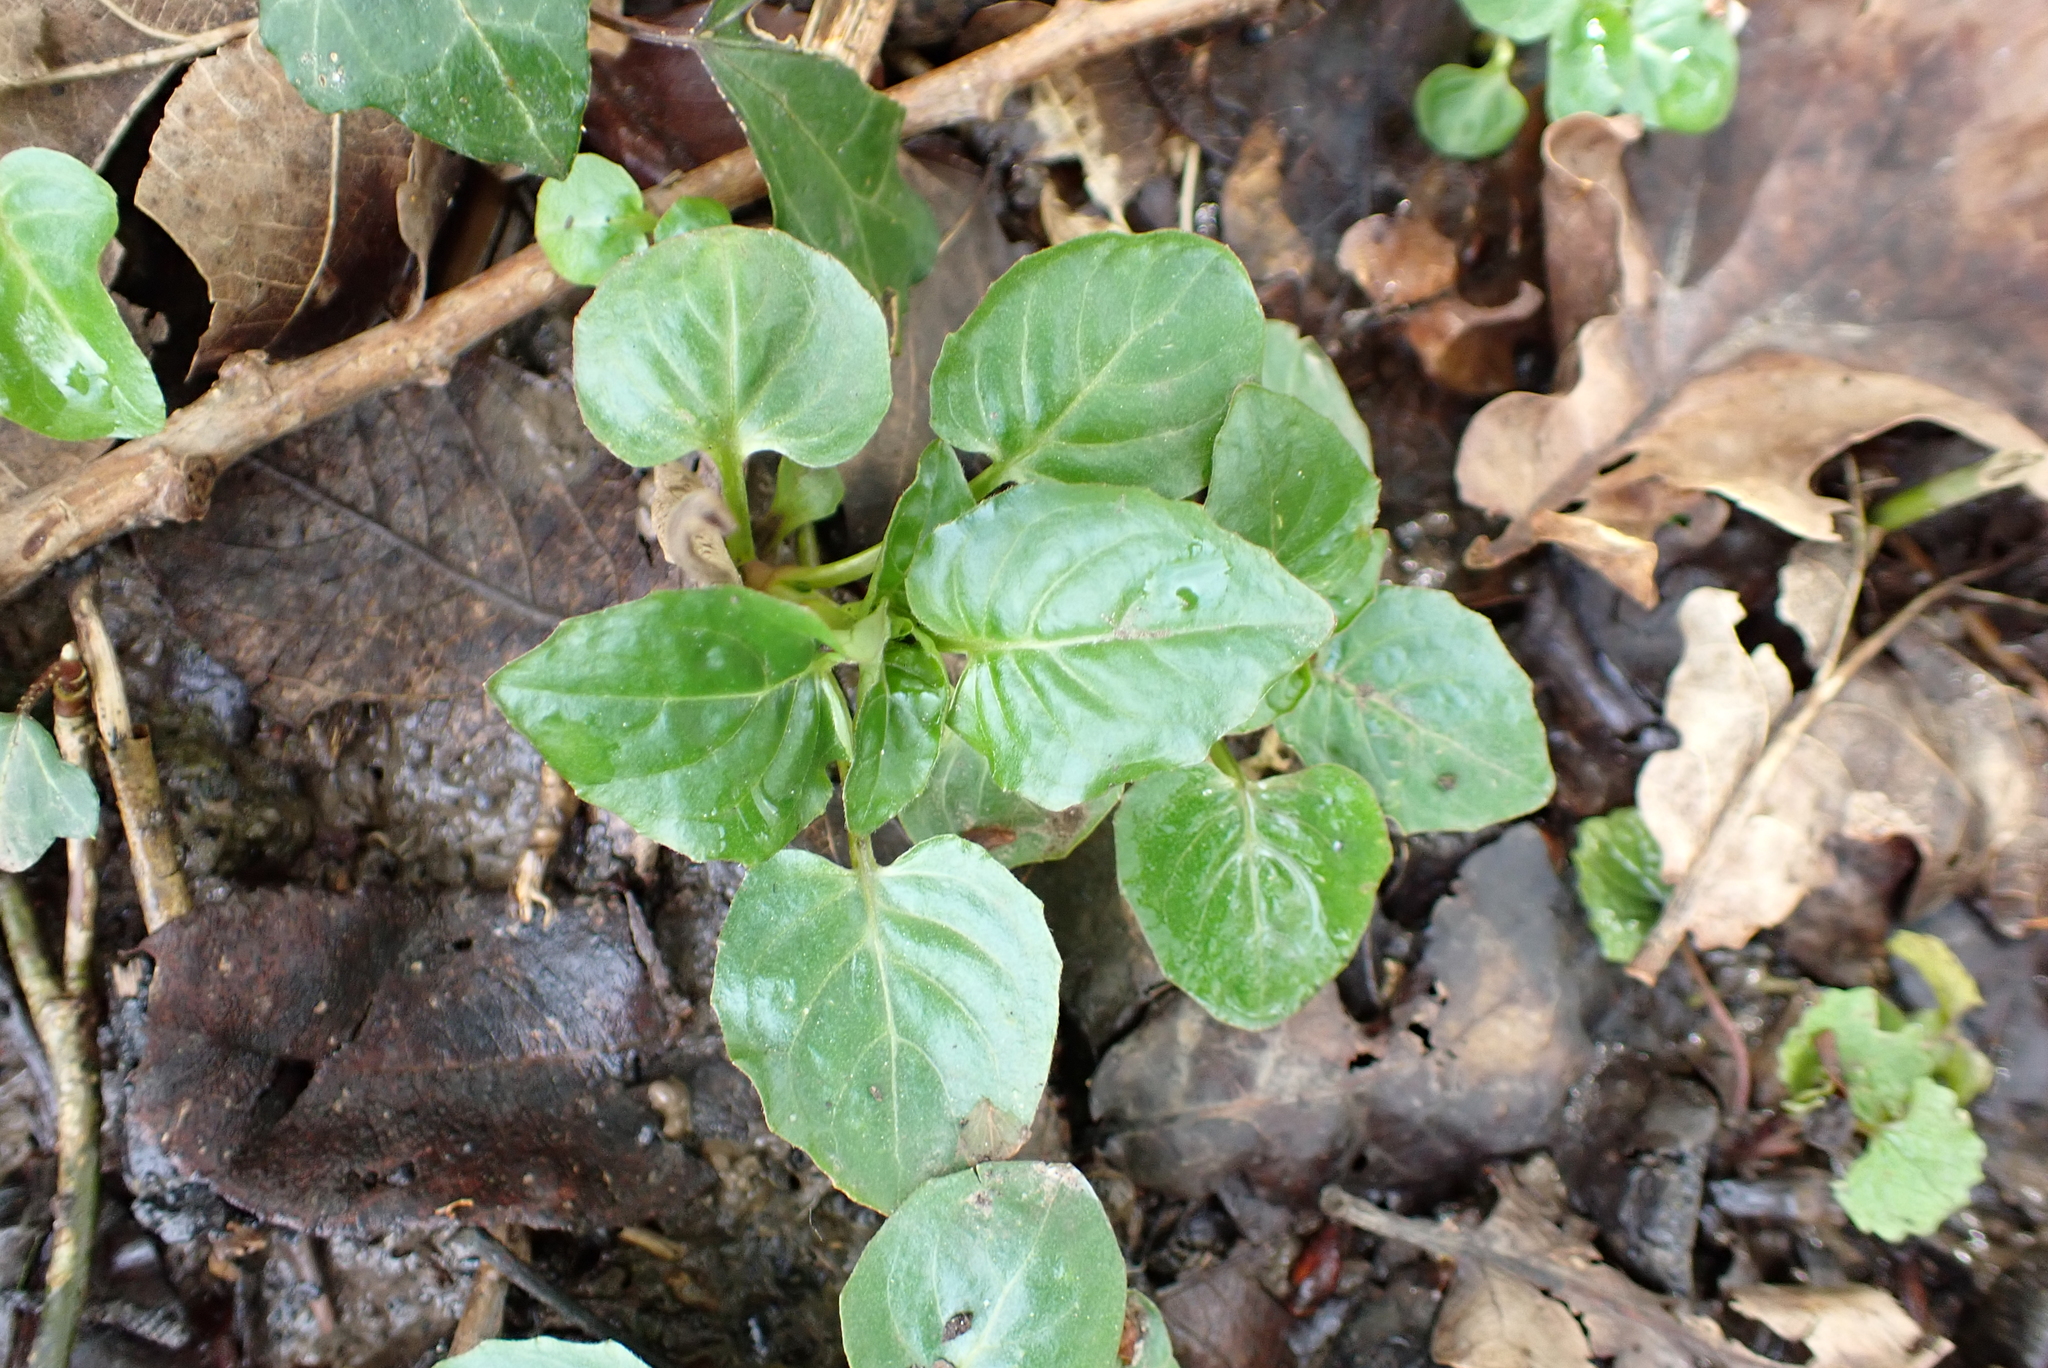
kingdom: Plantae
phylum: Tracheophyta
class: Magnoliopsida
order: Myrtales
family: Onagraceae
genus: Circaea
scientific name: Circaea lutetiana
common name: Enchanter's-nightshade
